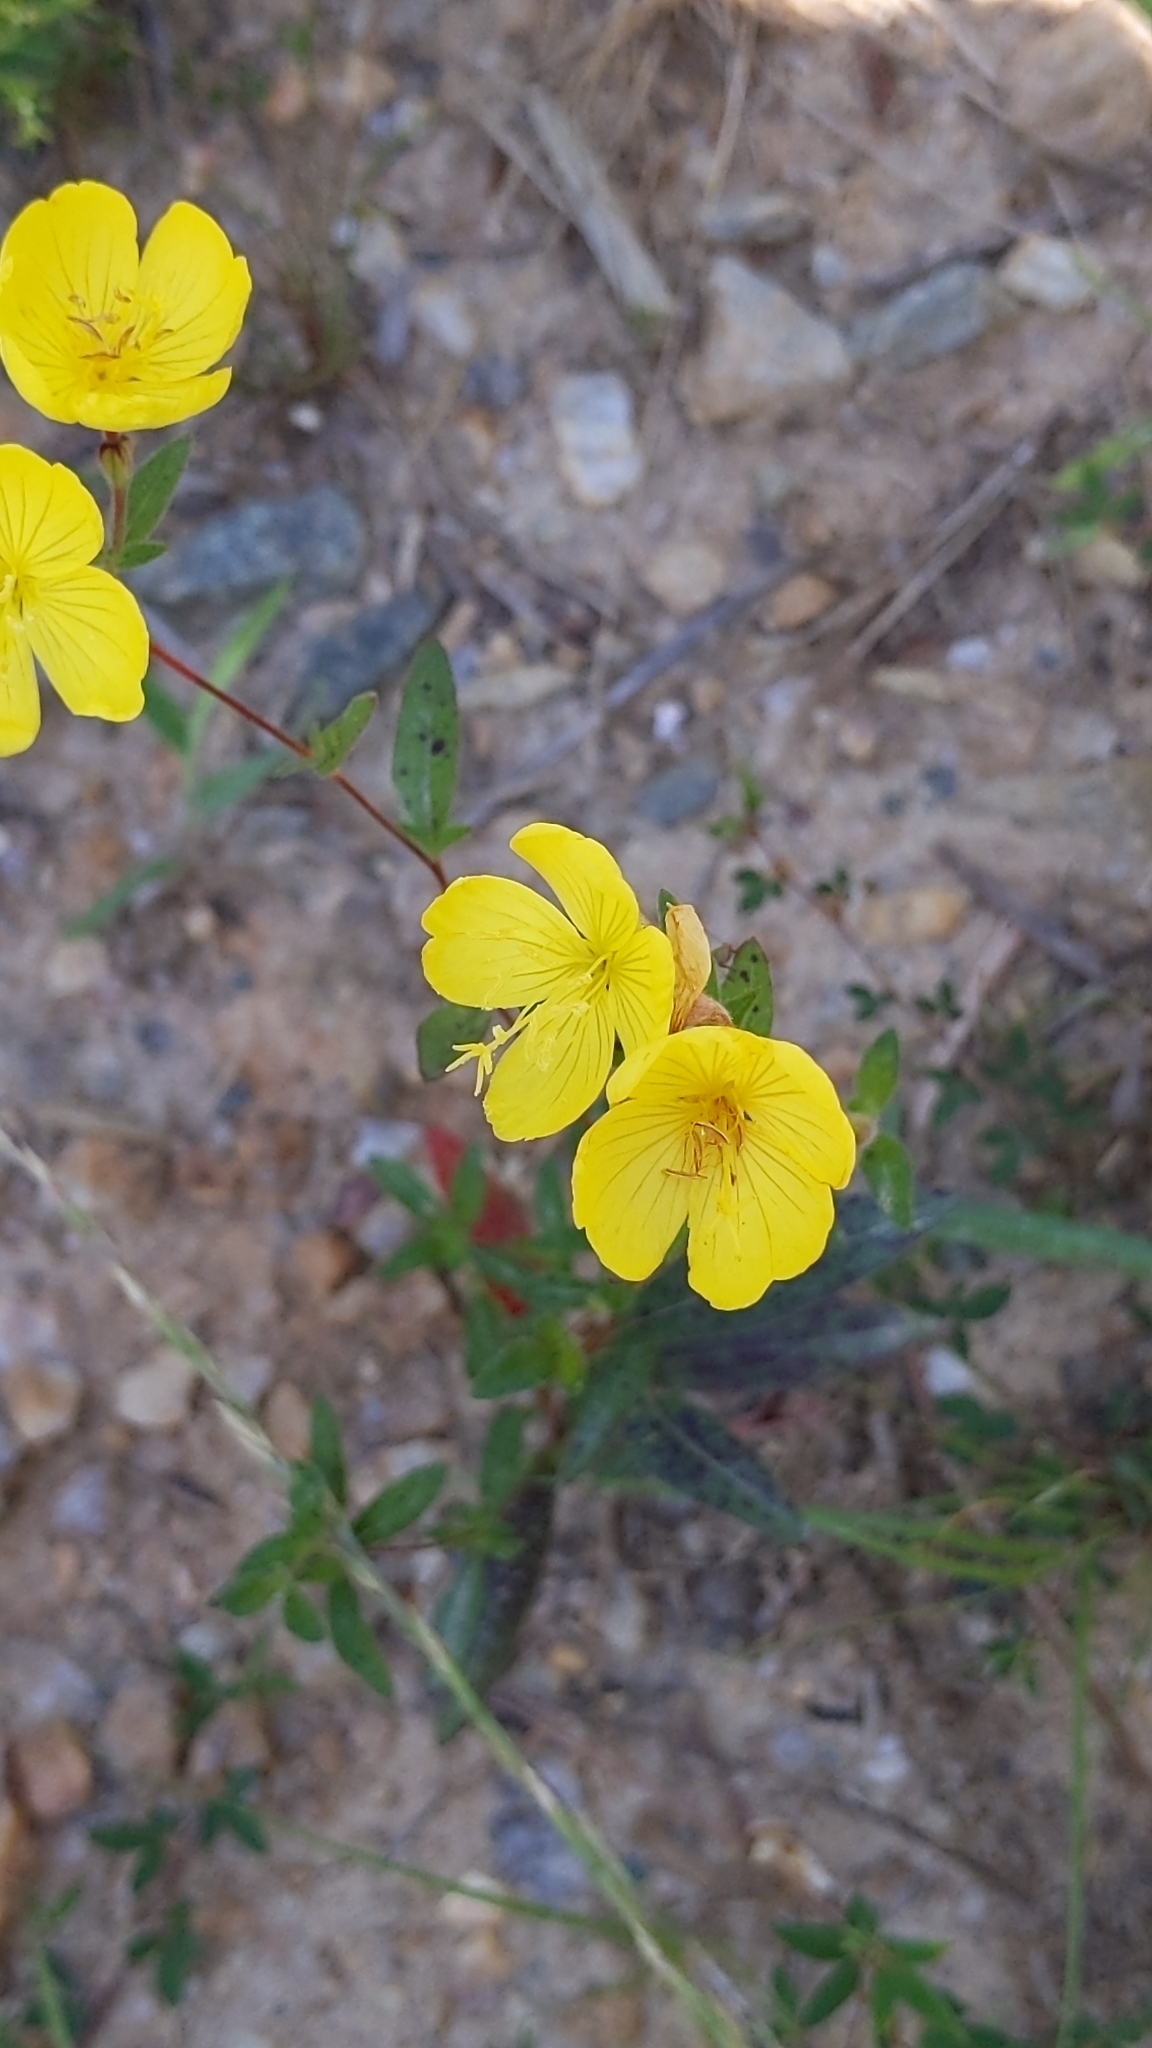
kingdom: Plantae
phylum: Tracheophyta
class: Magnoliopsida
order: Myrtales
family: Onagraceae
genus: Oenothera
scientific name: Oenothera fruticosa
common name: Southern sundrops
